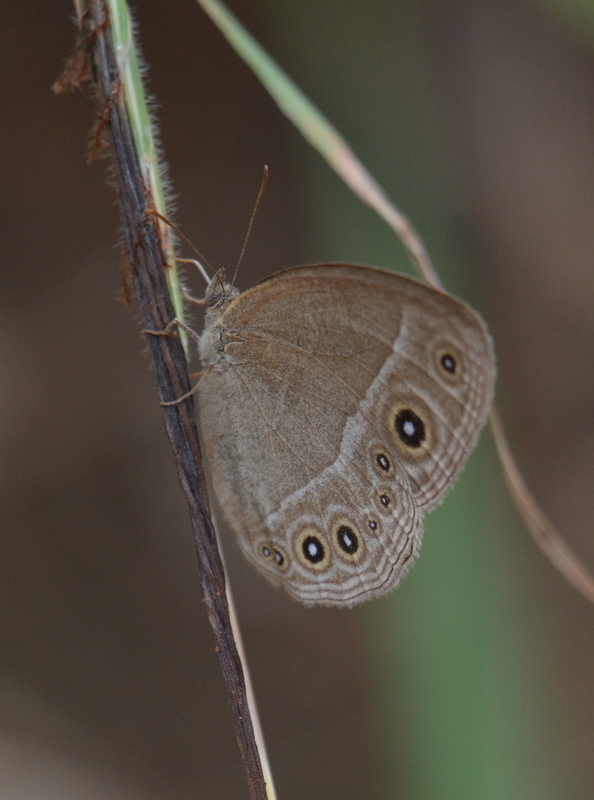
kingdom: Animalia
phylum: Arthropoda
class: Insecta
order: Lepidoptera
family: Nymphalidae
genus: Brakefieldia
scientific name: Brakefieldia simonsii
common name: Pale patroller
